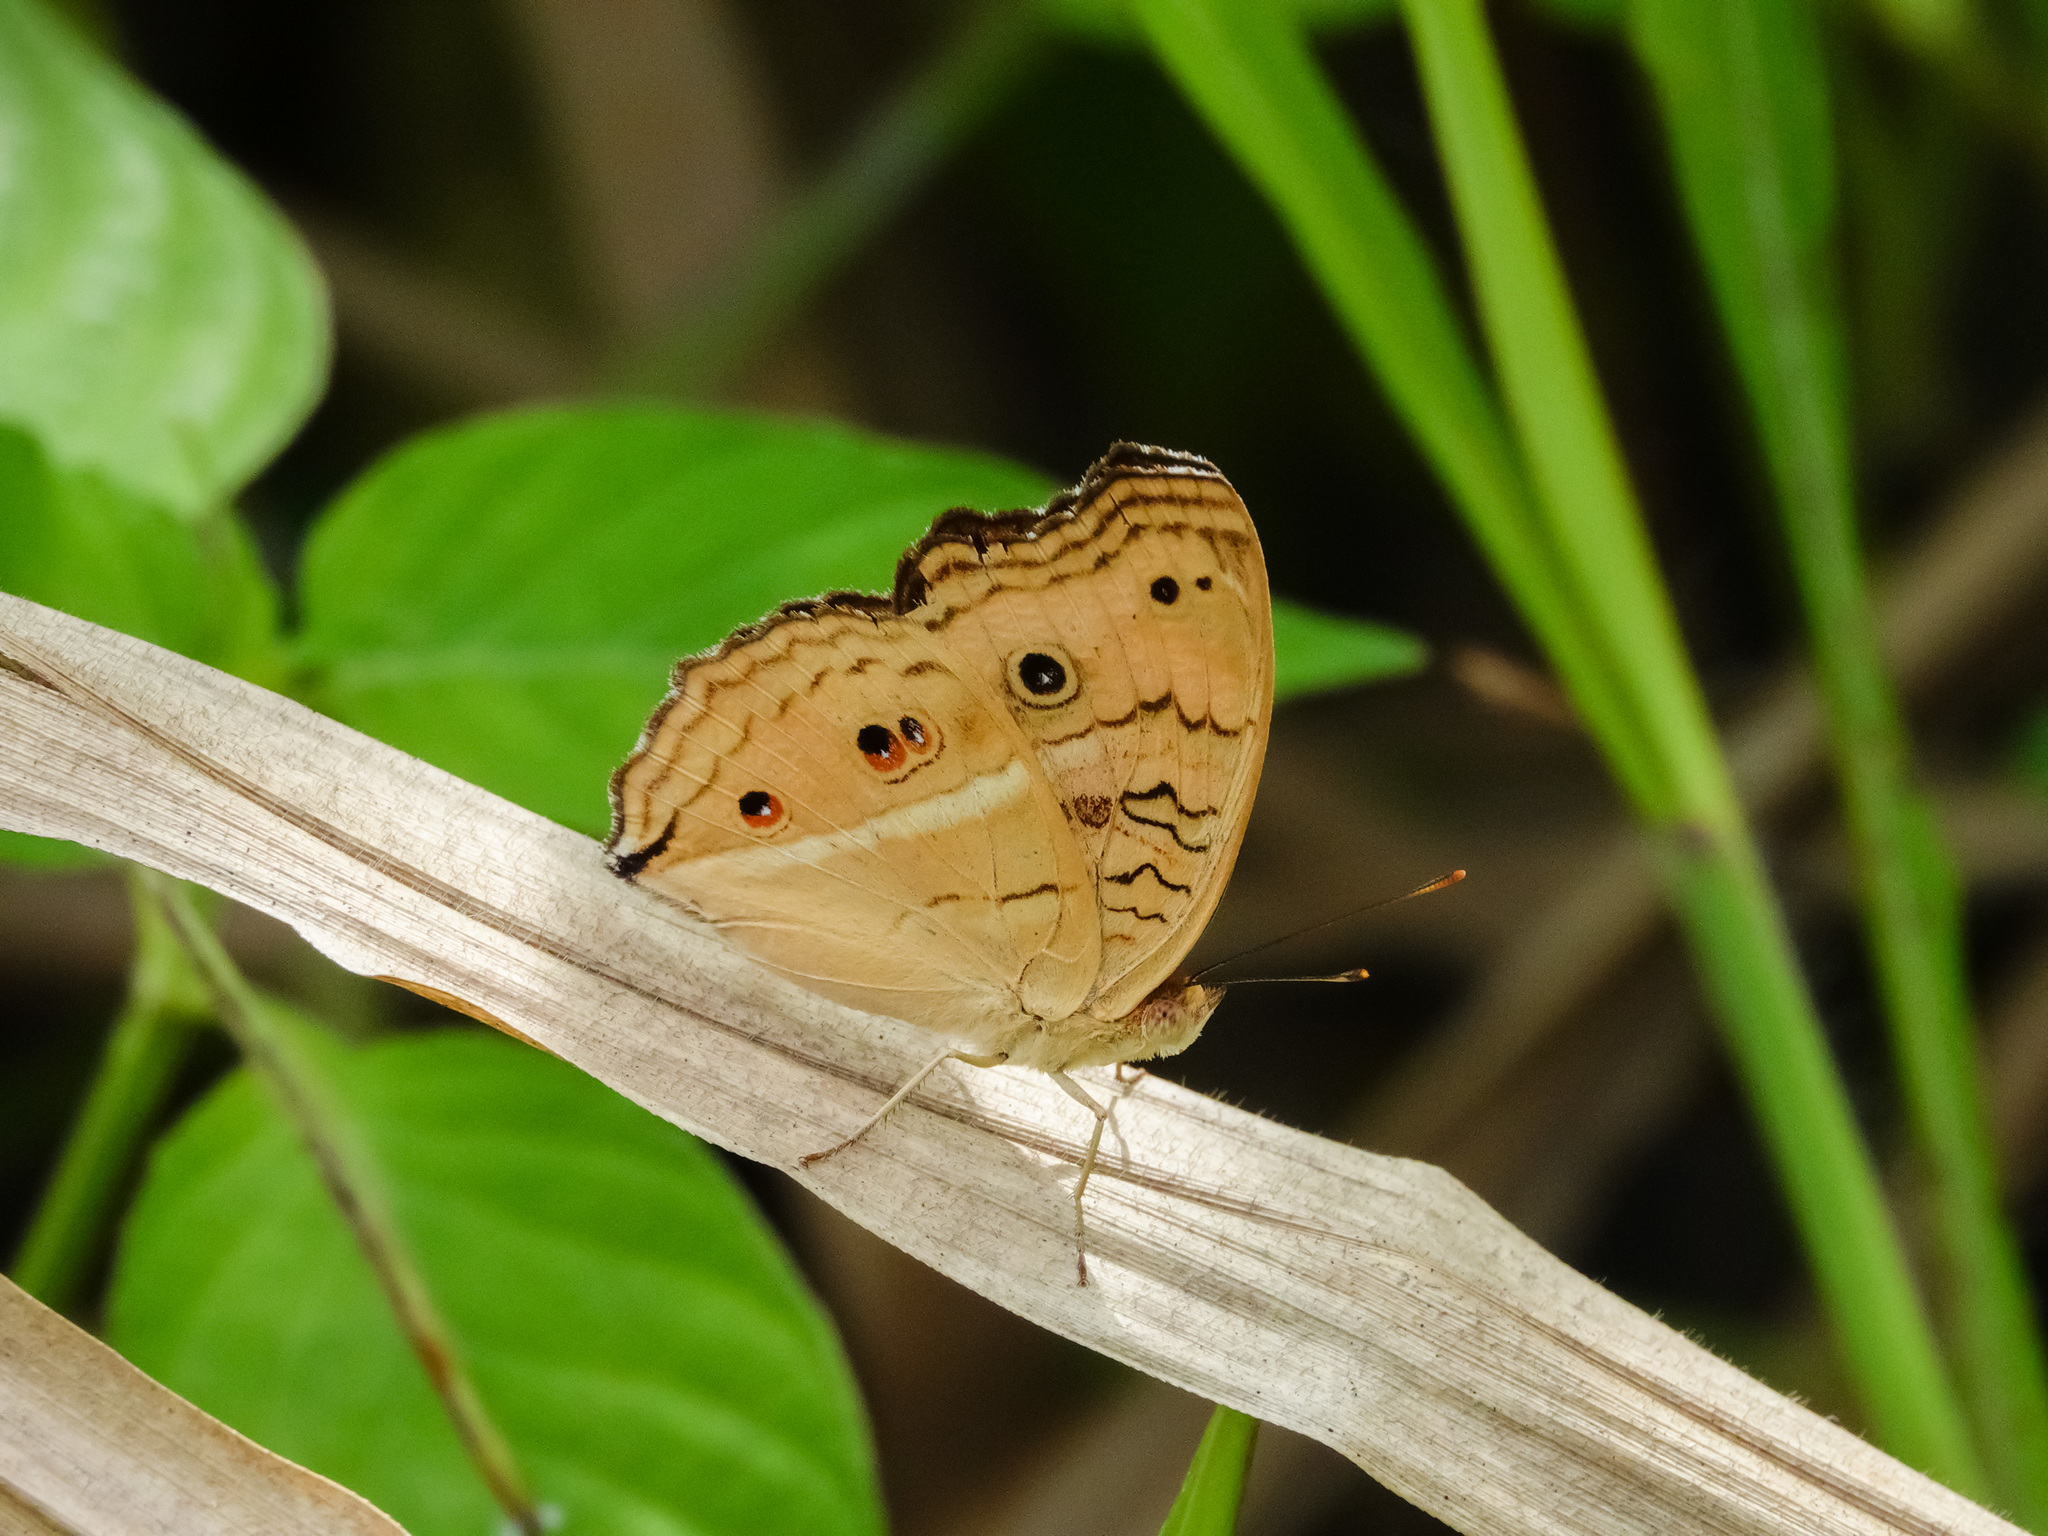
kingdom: Animalia
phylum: Arthropoda
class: Insecta
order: Lepidoptera
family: Nymphalidae
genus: Junonia
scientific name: Junonia almana
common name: Peacock pansy
